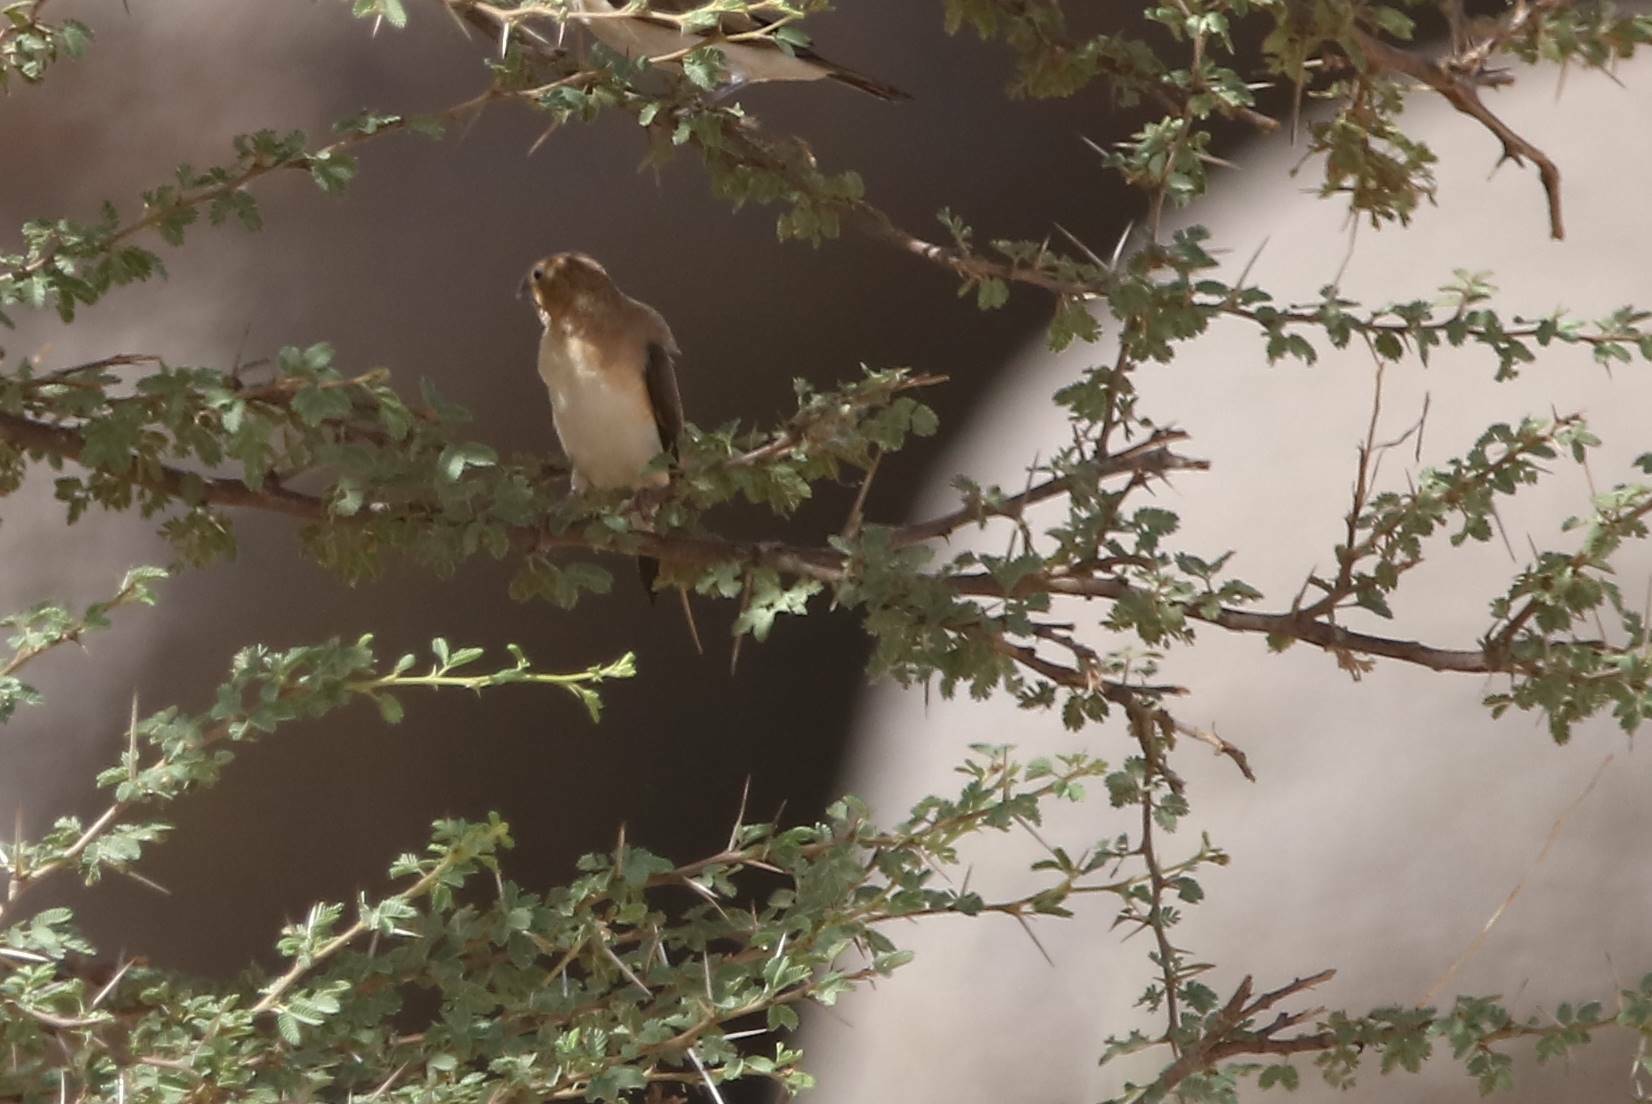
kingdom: Animalia
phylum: Chordata
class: Aves
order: Passeriformes
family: Estrildidae
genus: Euodice
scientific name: Euodice cantans
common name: African silverbill
